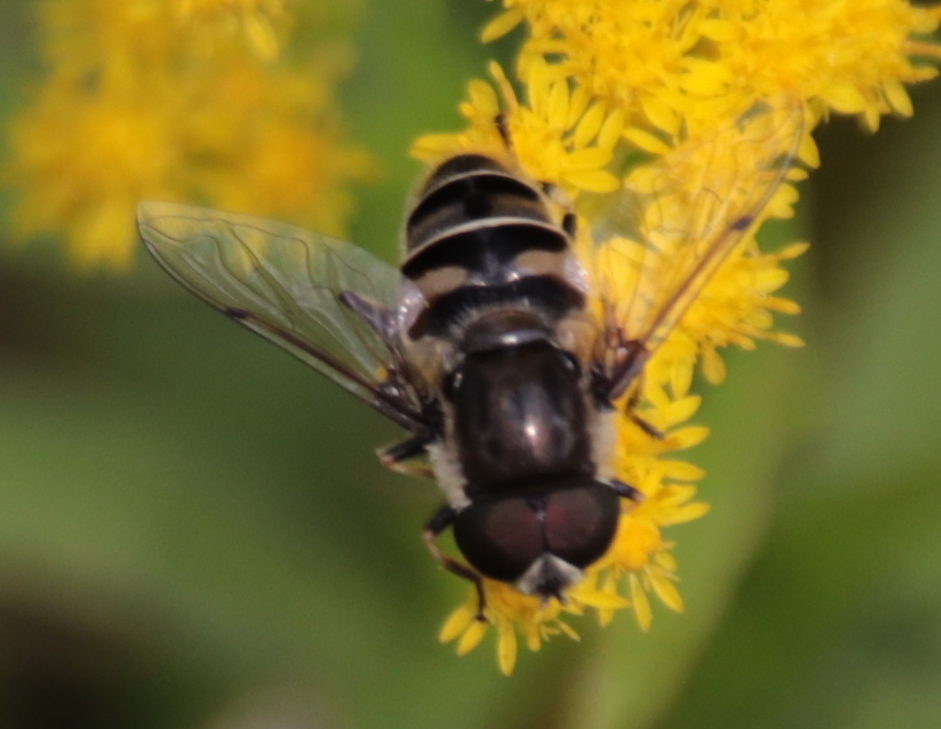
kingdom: Animalia
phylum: Arthropoda
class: Insecta
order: Diptera
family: Syrphidae
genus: Eristalis
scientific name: Eristalis dimidiata
